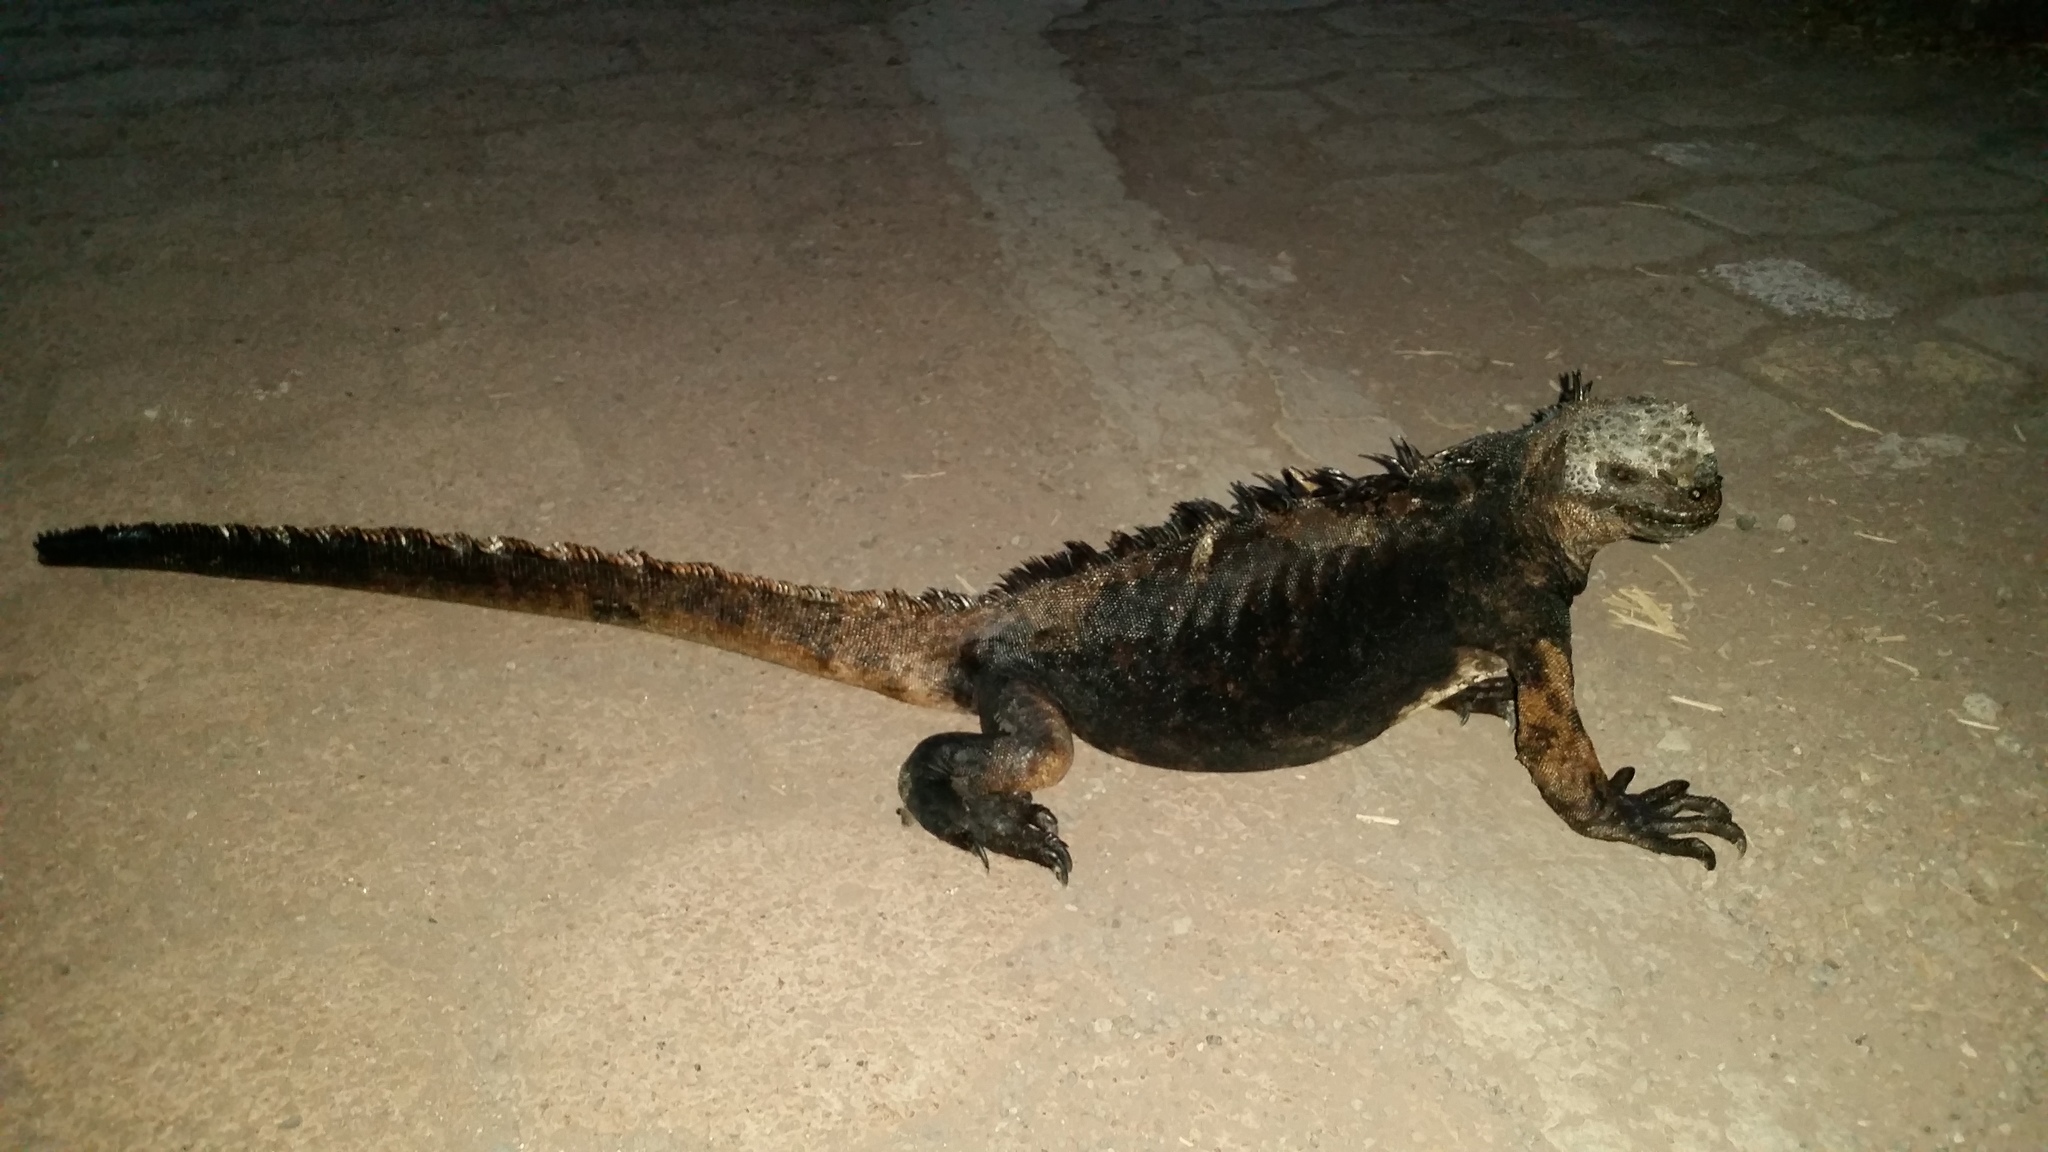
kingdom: Animalia
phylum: Chordata
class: Squamata
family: Iguanidae
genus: Amblyrhynchus
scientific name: Amblyrhynchus cristatus
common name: Marine iguana
